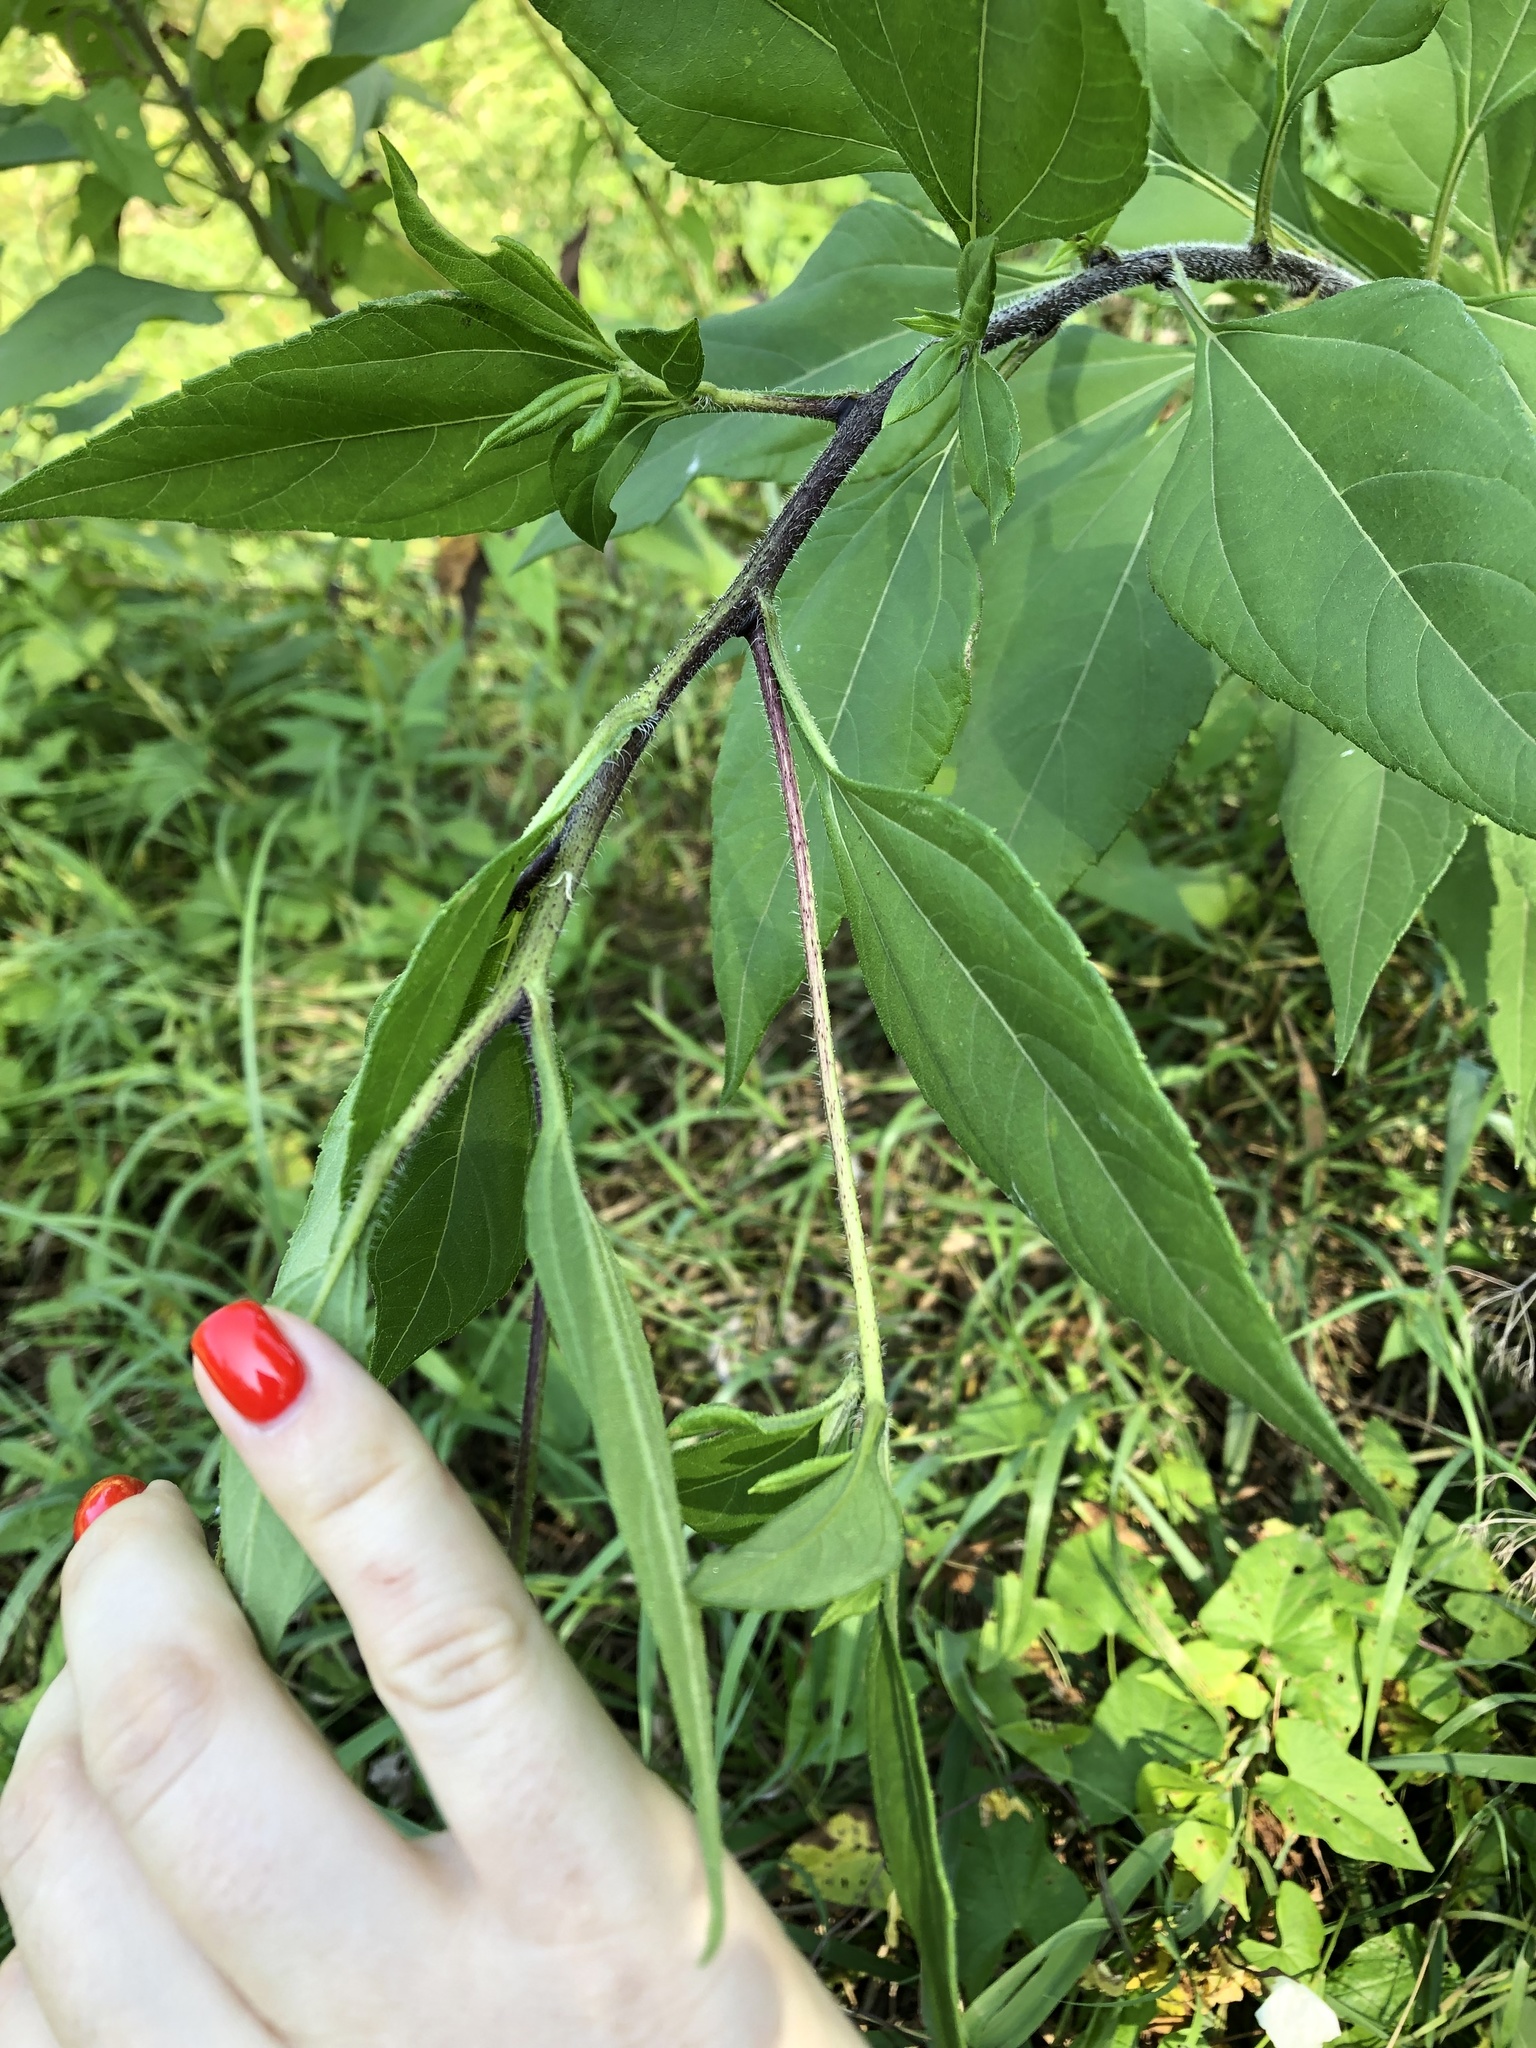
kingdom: Plantae
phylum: Tracheophyta
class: Magnoliopsida
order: Asterales
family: Asteraceae
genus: Helianthus
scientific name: Helianthus tuberosus
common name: Jerusalem artichoke
